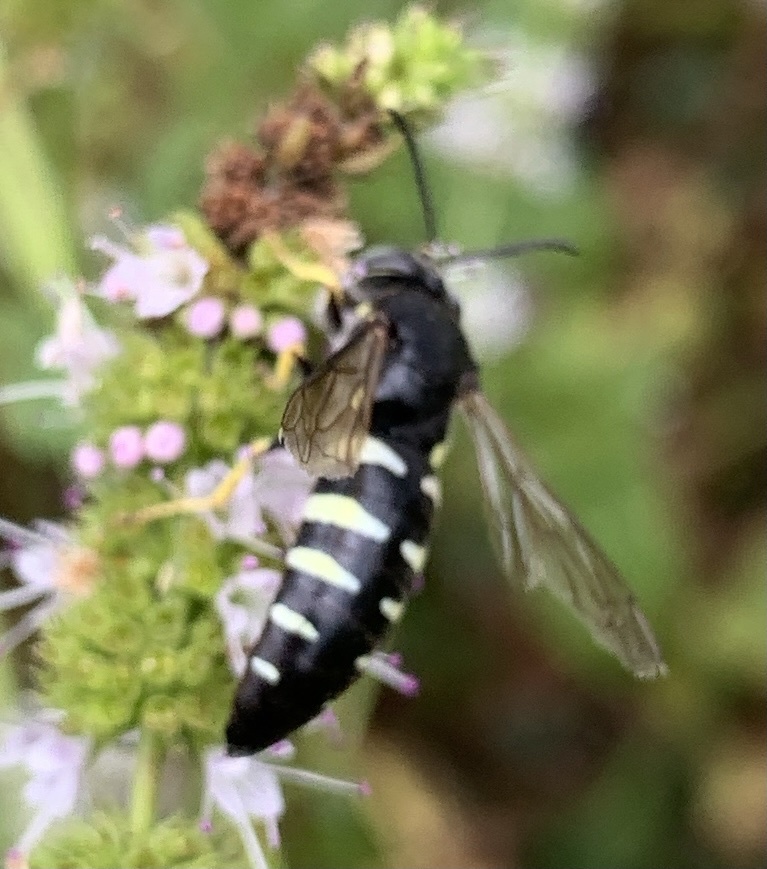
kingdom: Animalia
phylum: Arthropoda
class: Insecta
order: Hymenoptera
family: Crabronidae
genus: Bicyrtes
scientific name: Bicyrtes quadrifasciatus
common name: Four-banded stink bug hunter wasp
